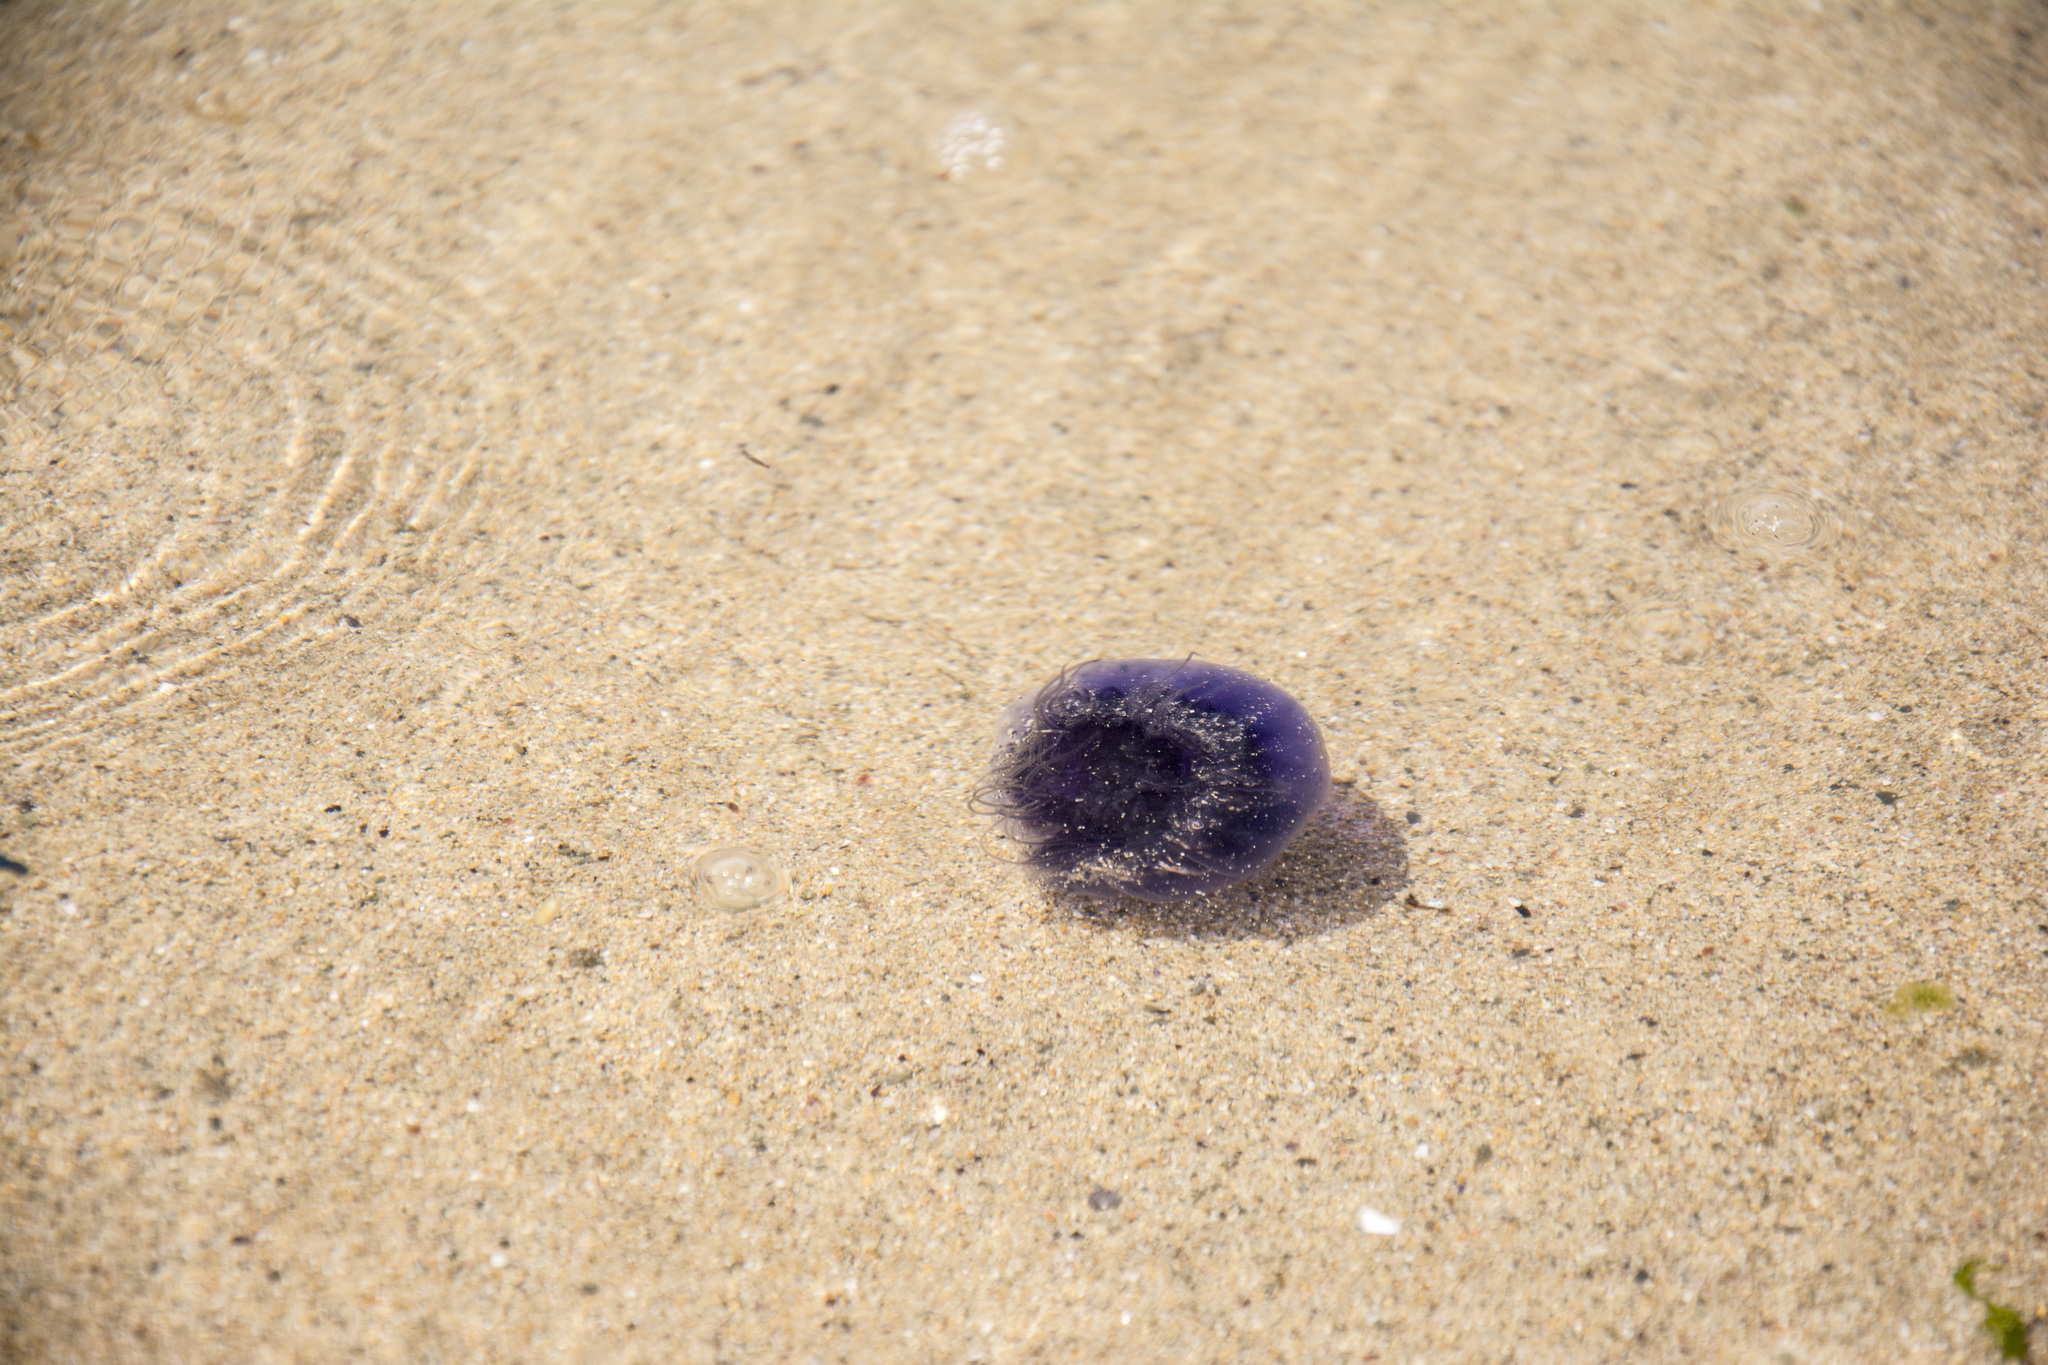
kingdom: Animalia
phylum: Cnidaria
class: Scyphozoa
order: Semaeostomeae
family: Cyaneidae
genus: Cyanea
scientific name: Cyanea lamarckii
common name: Blue jellyfish
